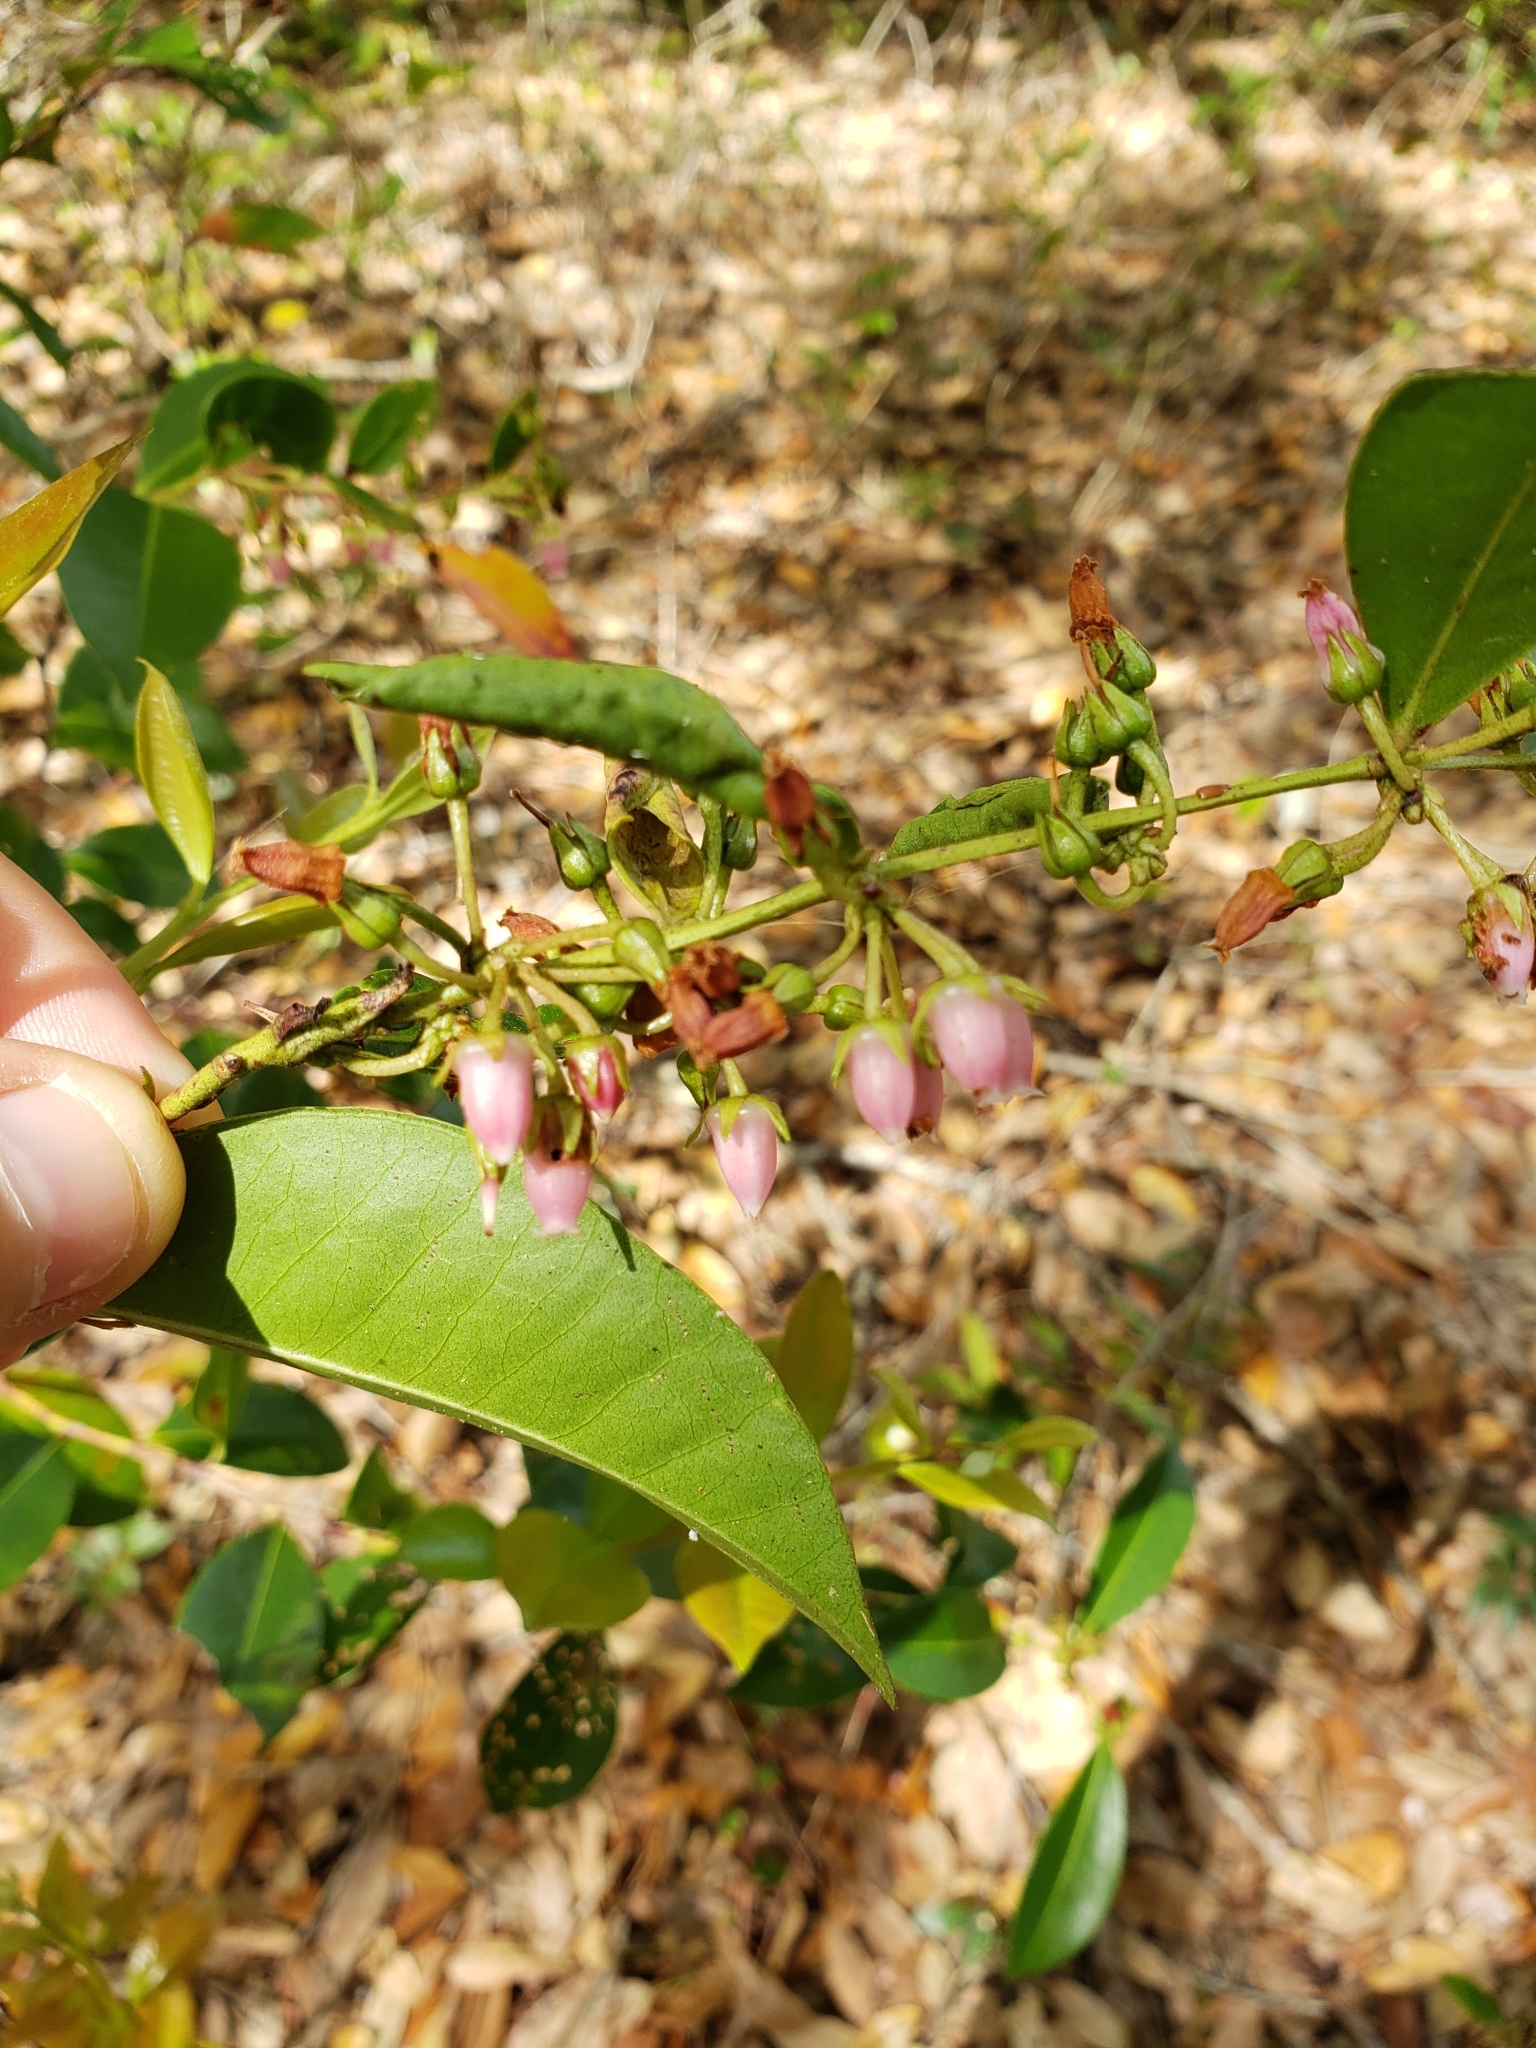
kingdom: Plantae
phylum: Tracheophyta
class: Magnoliopsida
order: Ericales
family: Ericaceae
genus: Lyonia
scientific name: Lyonia lucida
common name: Fetterbush
